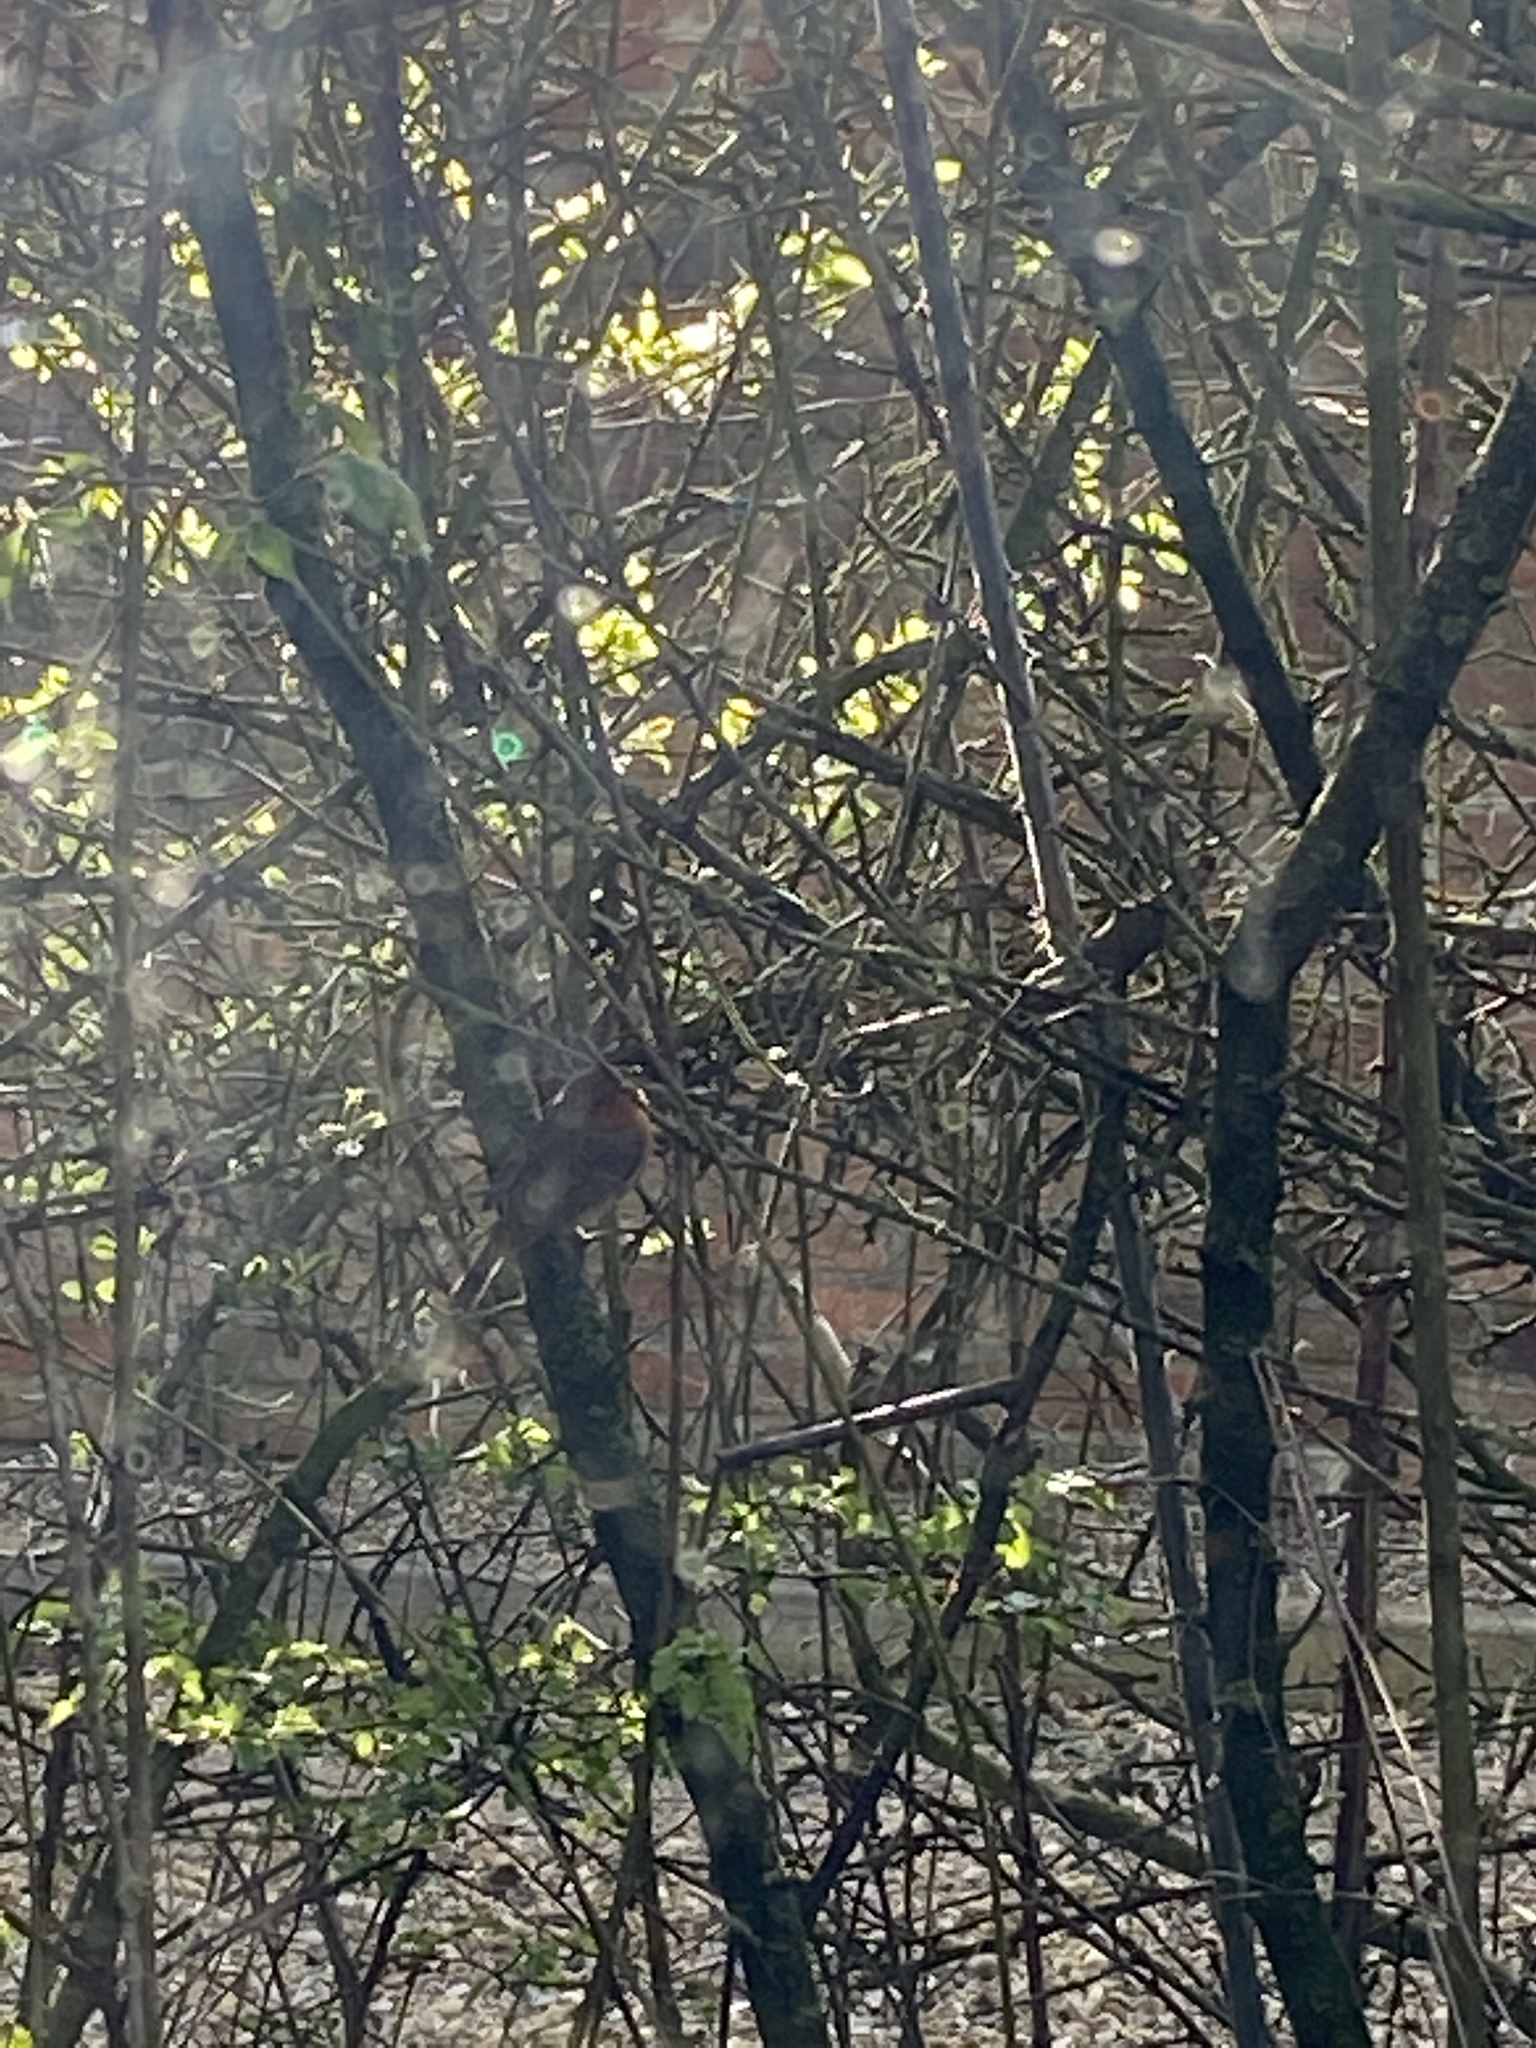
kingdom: Animalia
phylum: Chordata
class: Aves
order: Passeriformes
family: Muscicapidae
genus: Erithacus
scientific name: Erithacus rubecula
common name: European robin
